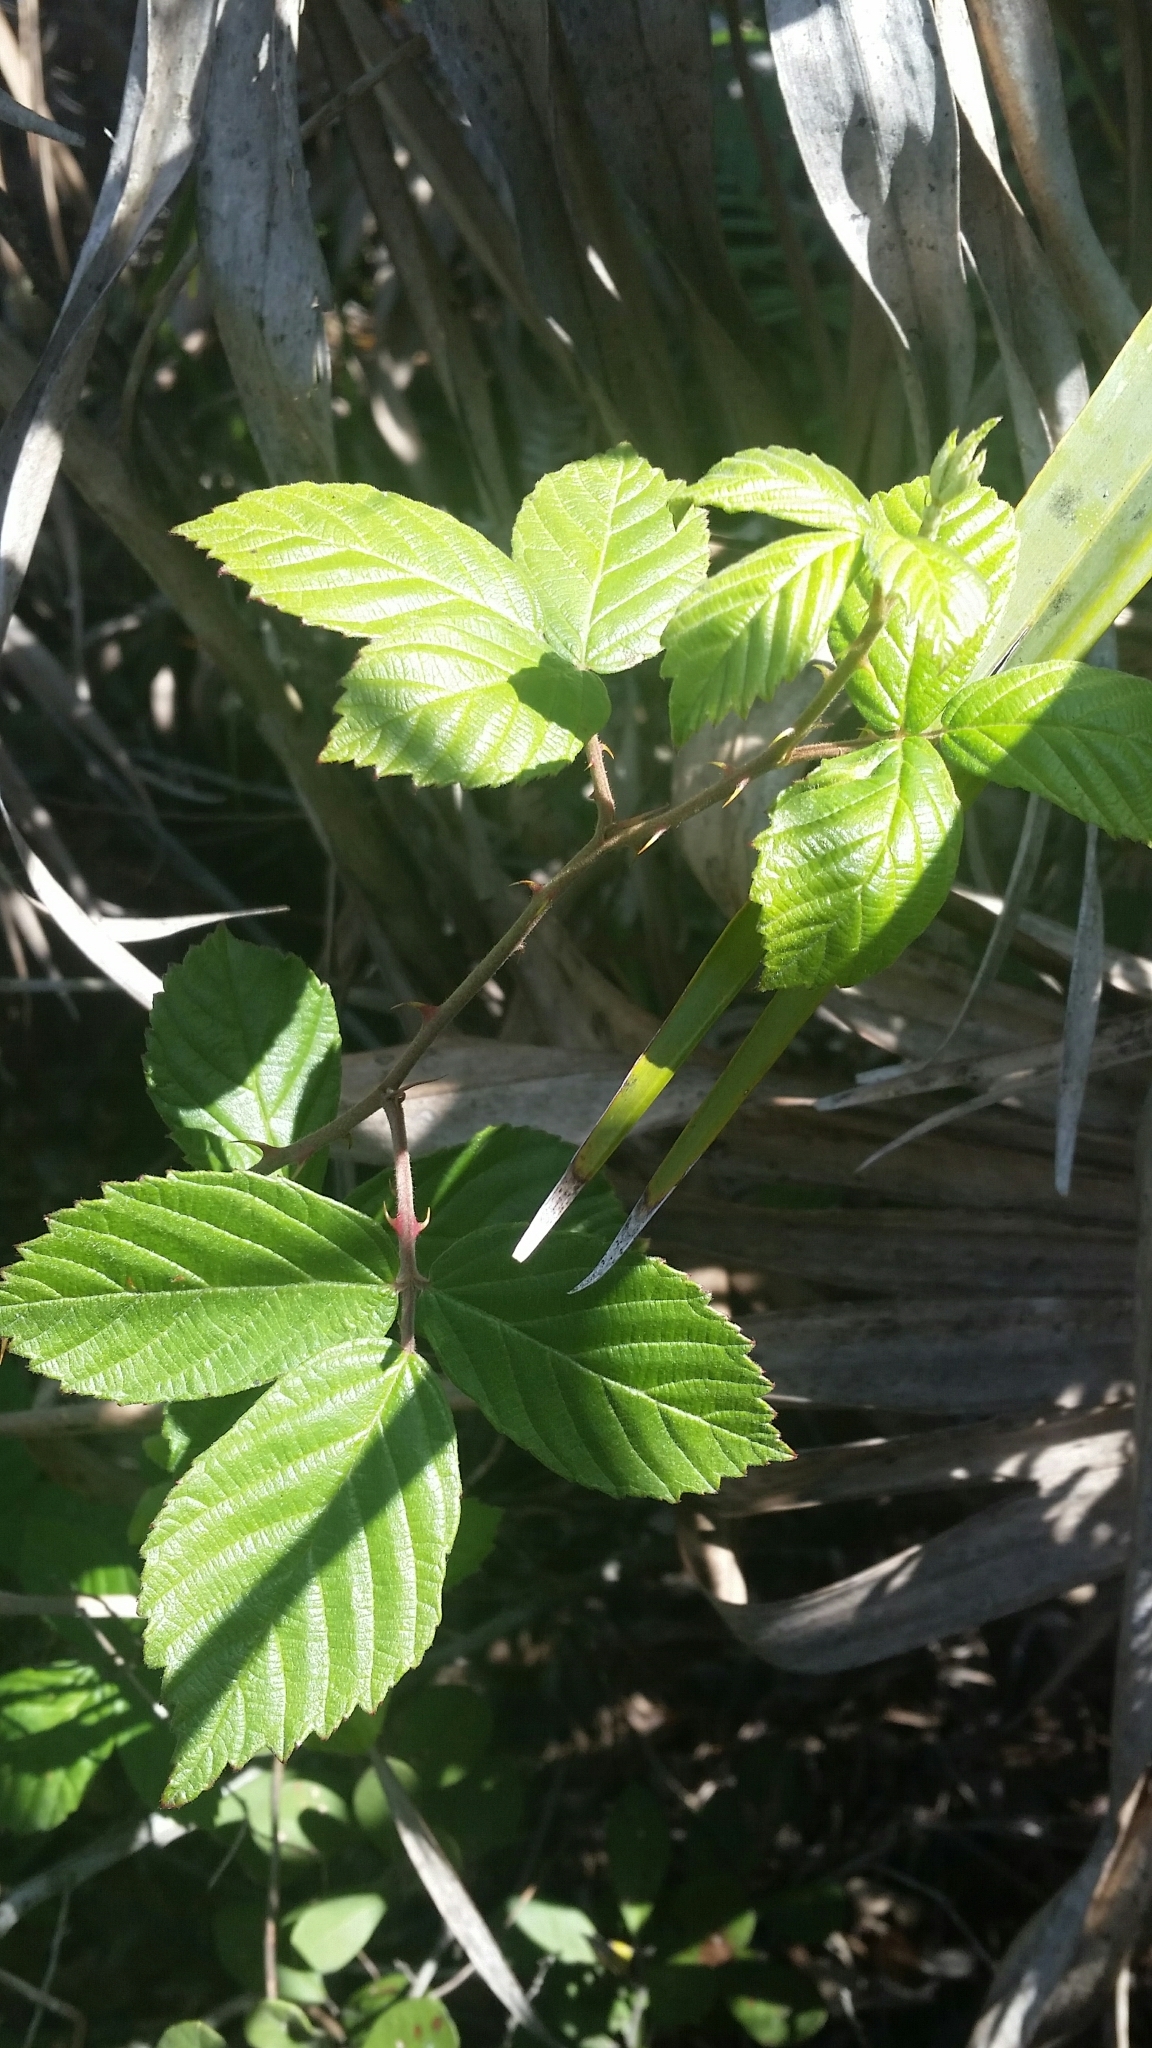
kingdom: Plantae
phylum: Tracheophyta
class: Magnoliopsida
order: Rosales
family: Rosaceae
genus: Rubus
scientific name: Rubus cuneifolius
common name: American bramble
